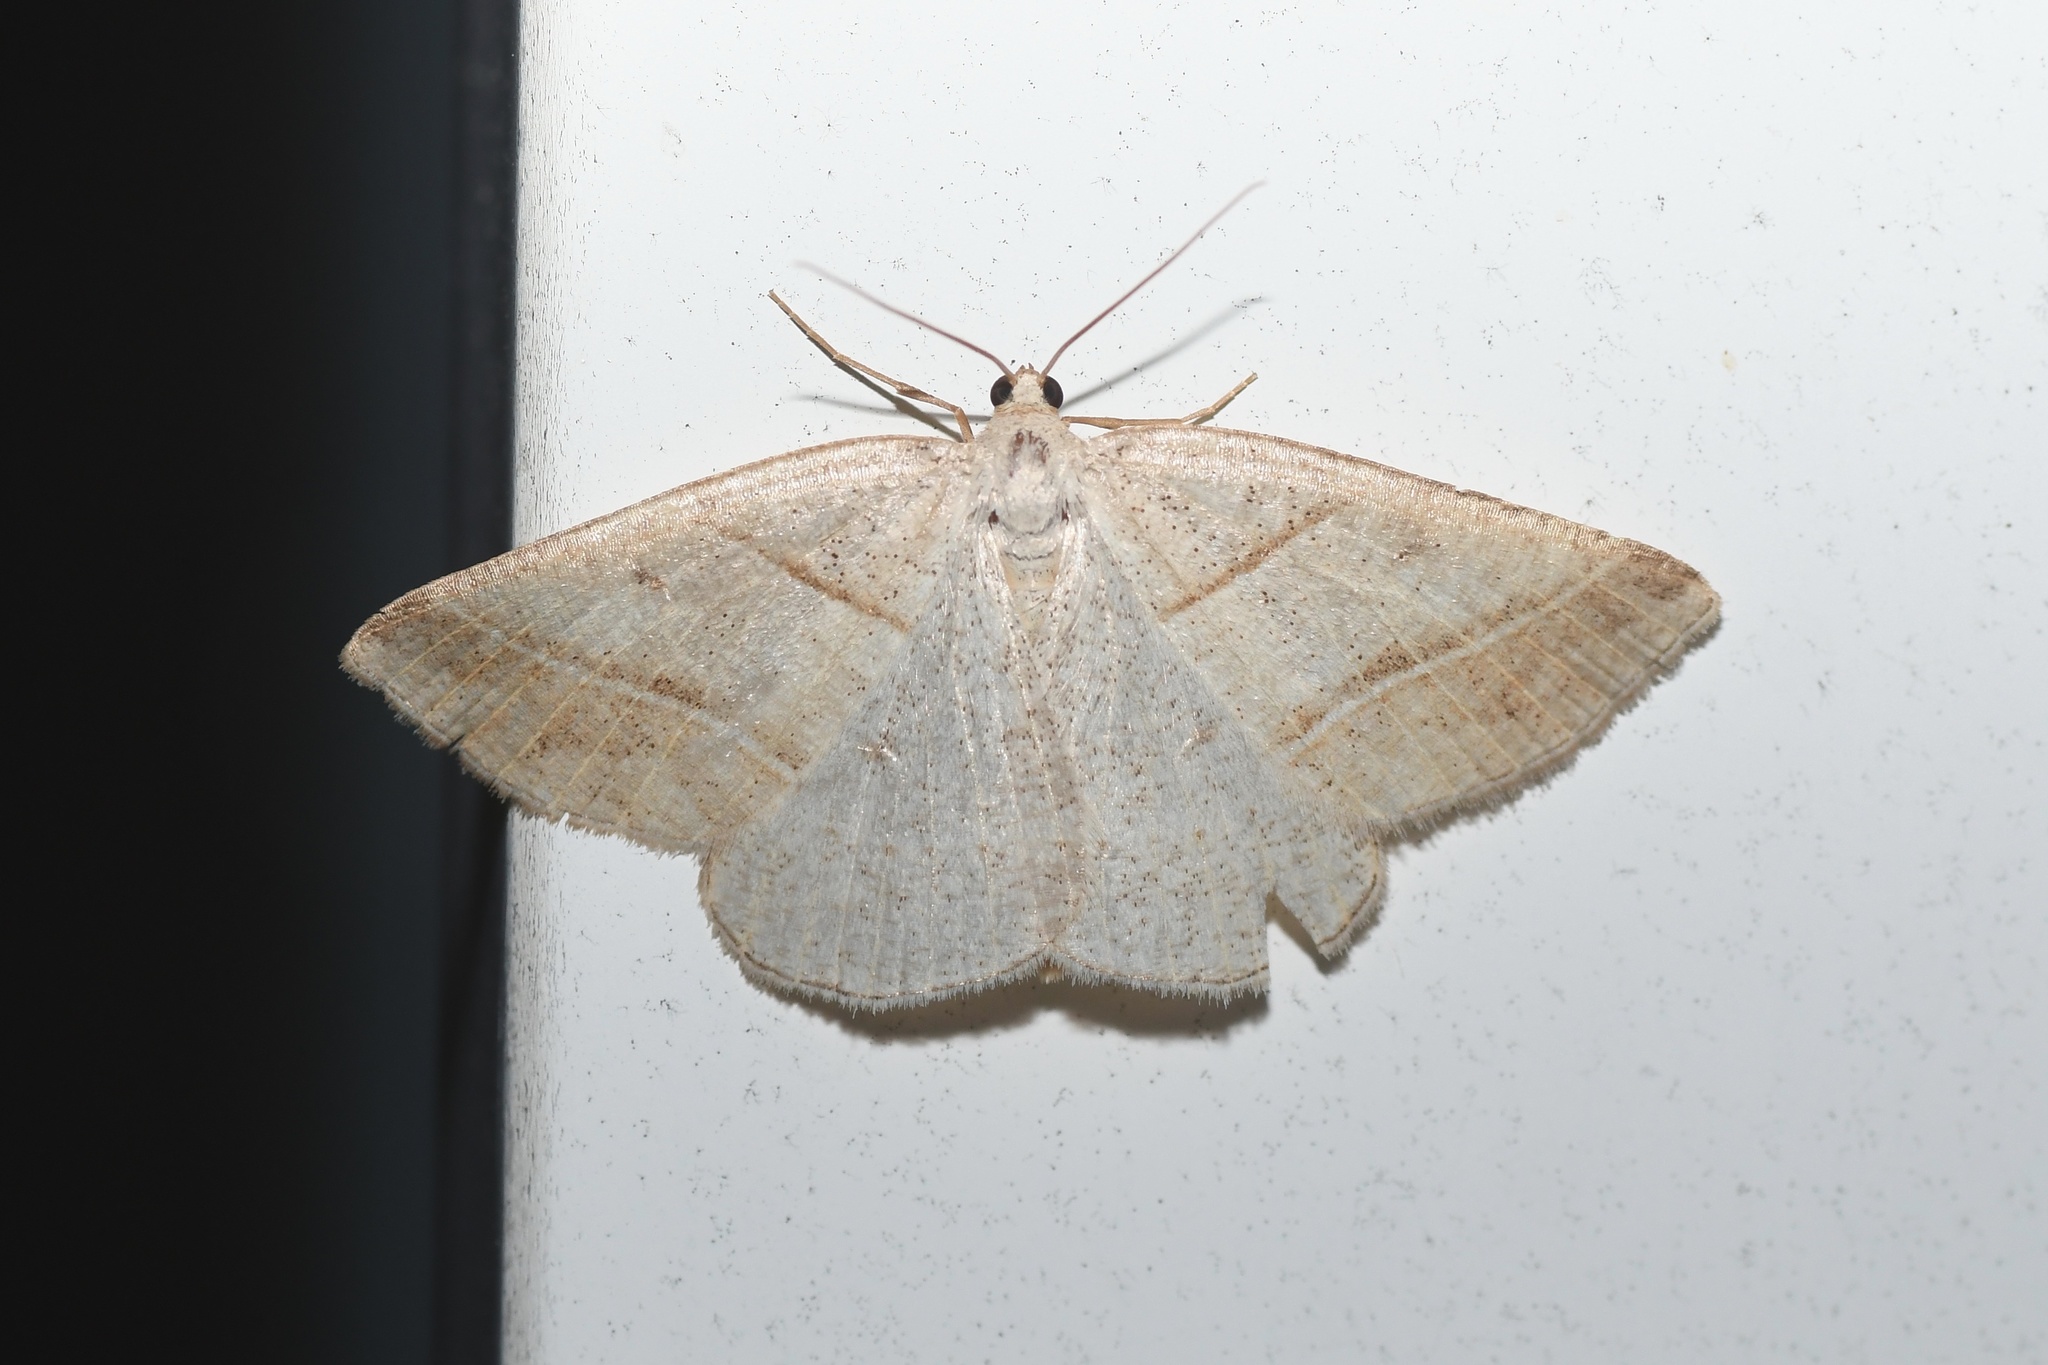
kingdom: Animalia
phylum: Arthropoda
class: Insecta
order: Lepidoptera
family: Pterophoridae
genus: Pterophorus
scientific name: Pterophorus Petrophora subaequaria
